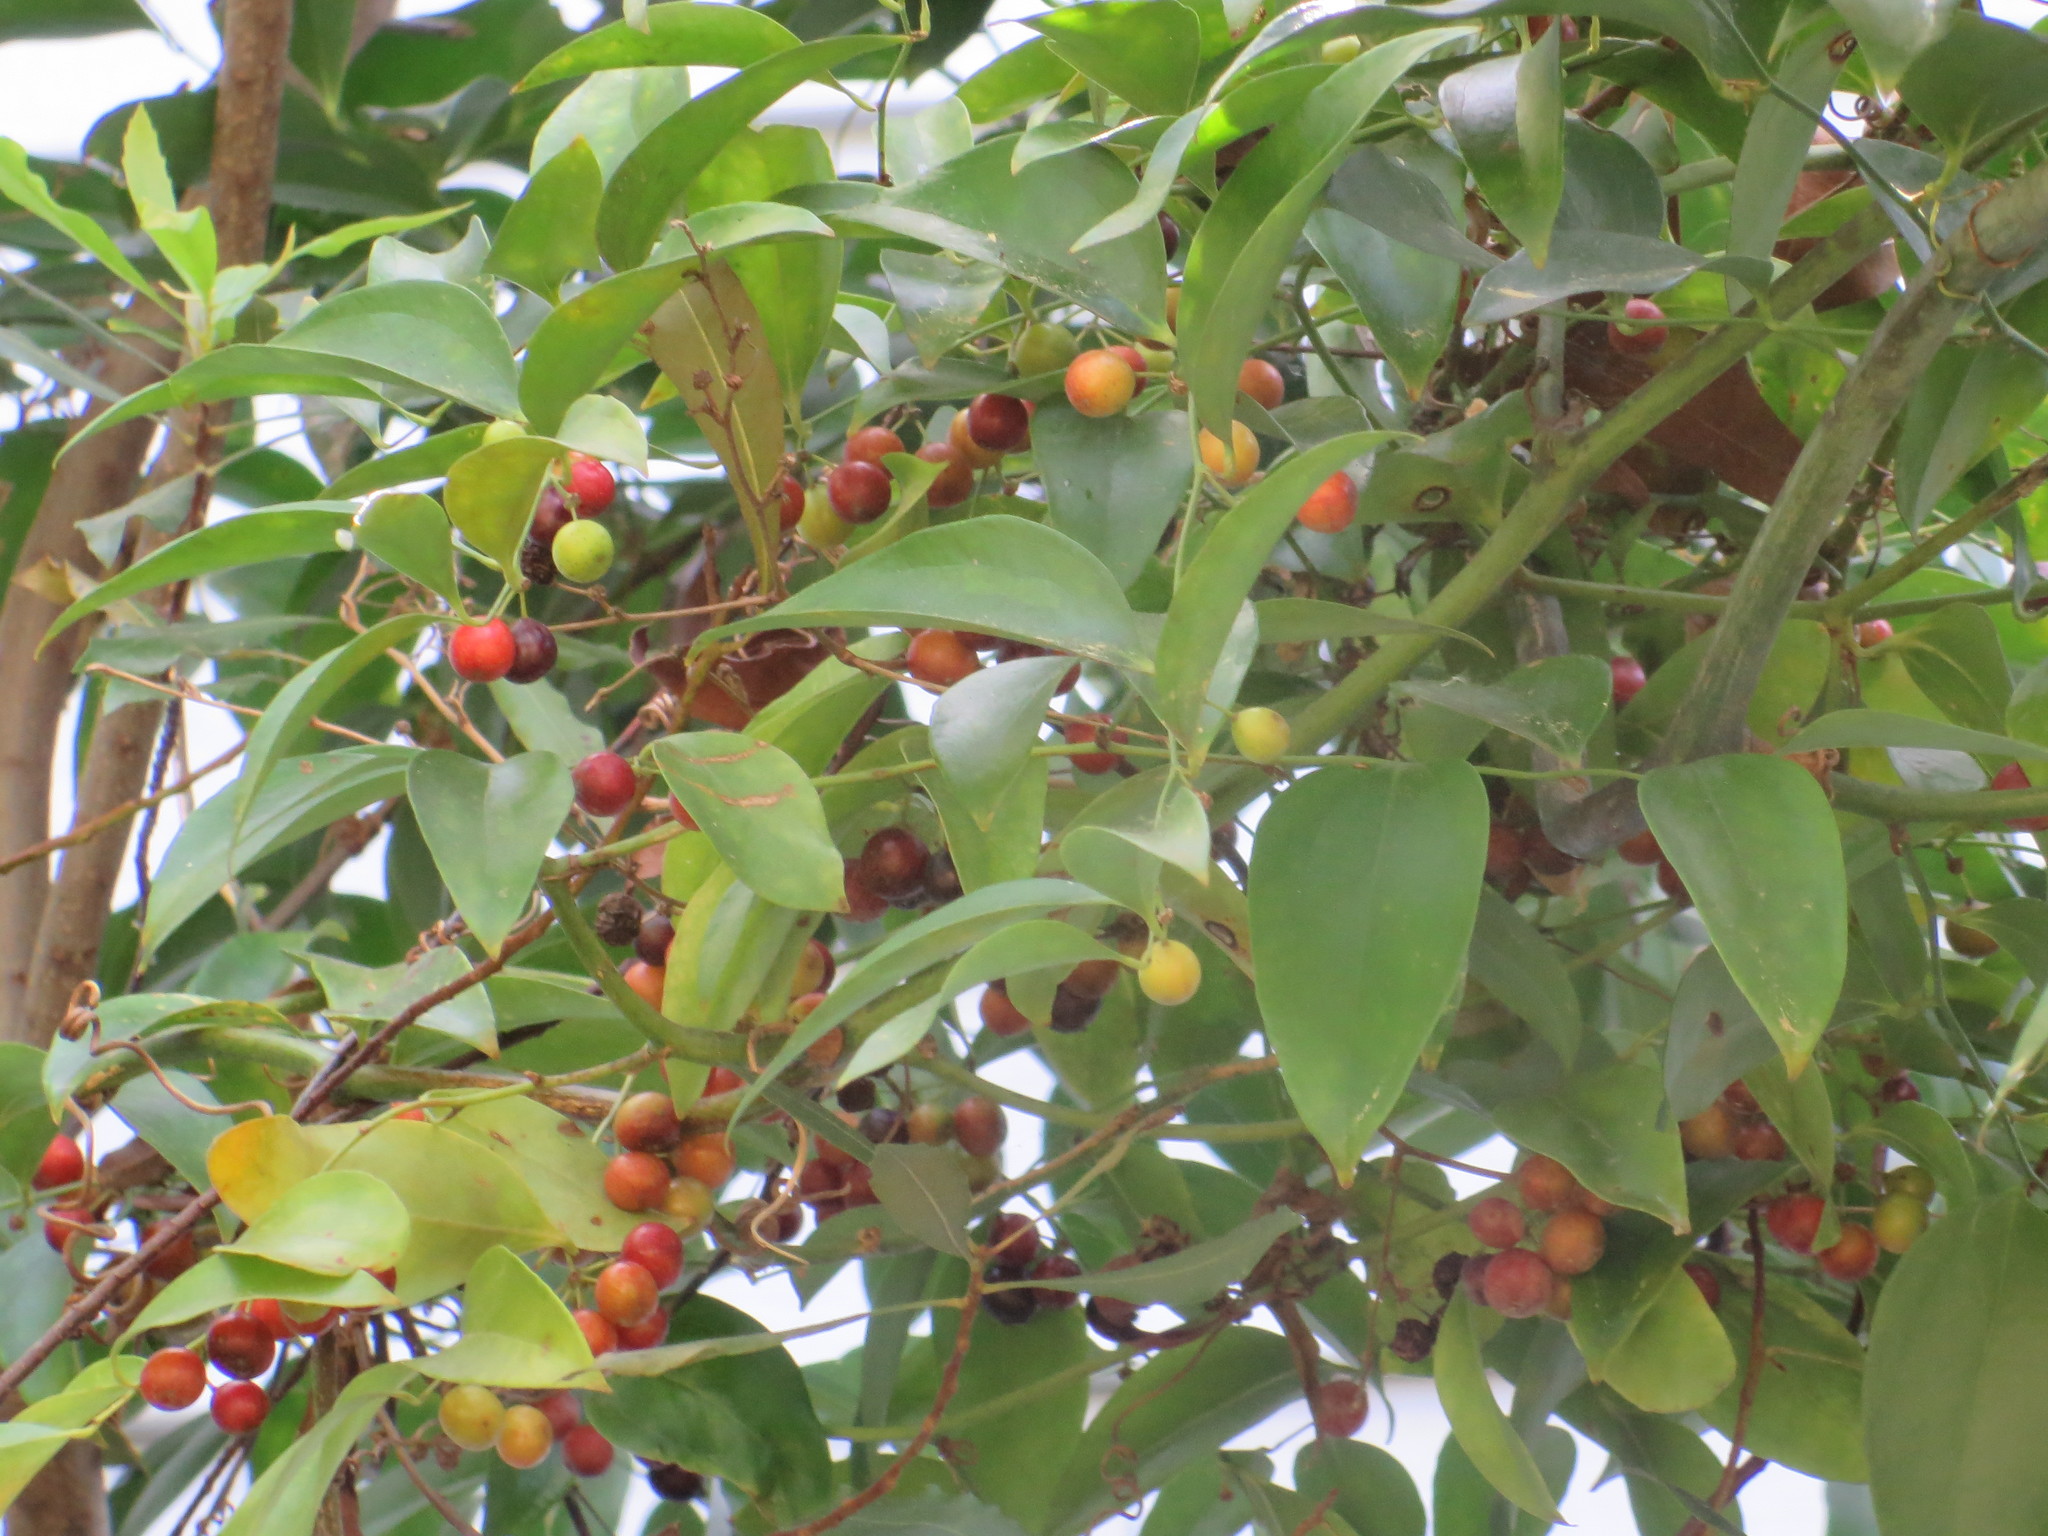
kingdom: Plantae
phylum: Tracheophyta
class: Liliopsida
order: Liliales
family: Smilacaceae
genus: Smilax
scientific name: Smilax maritima
